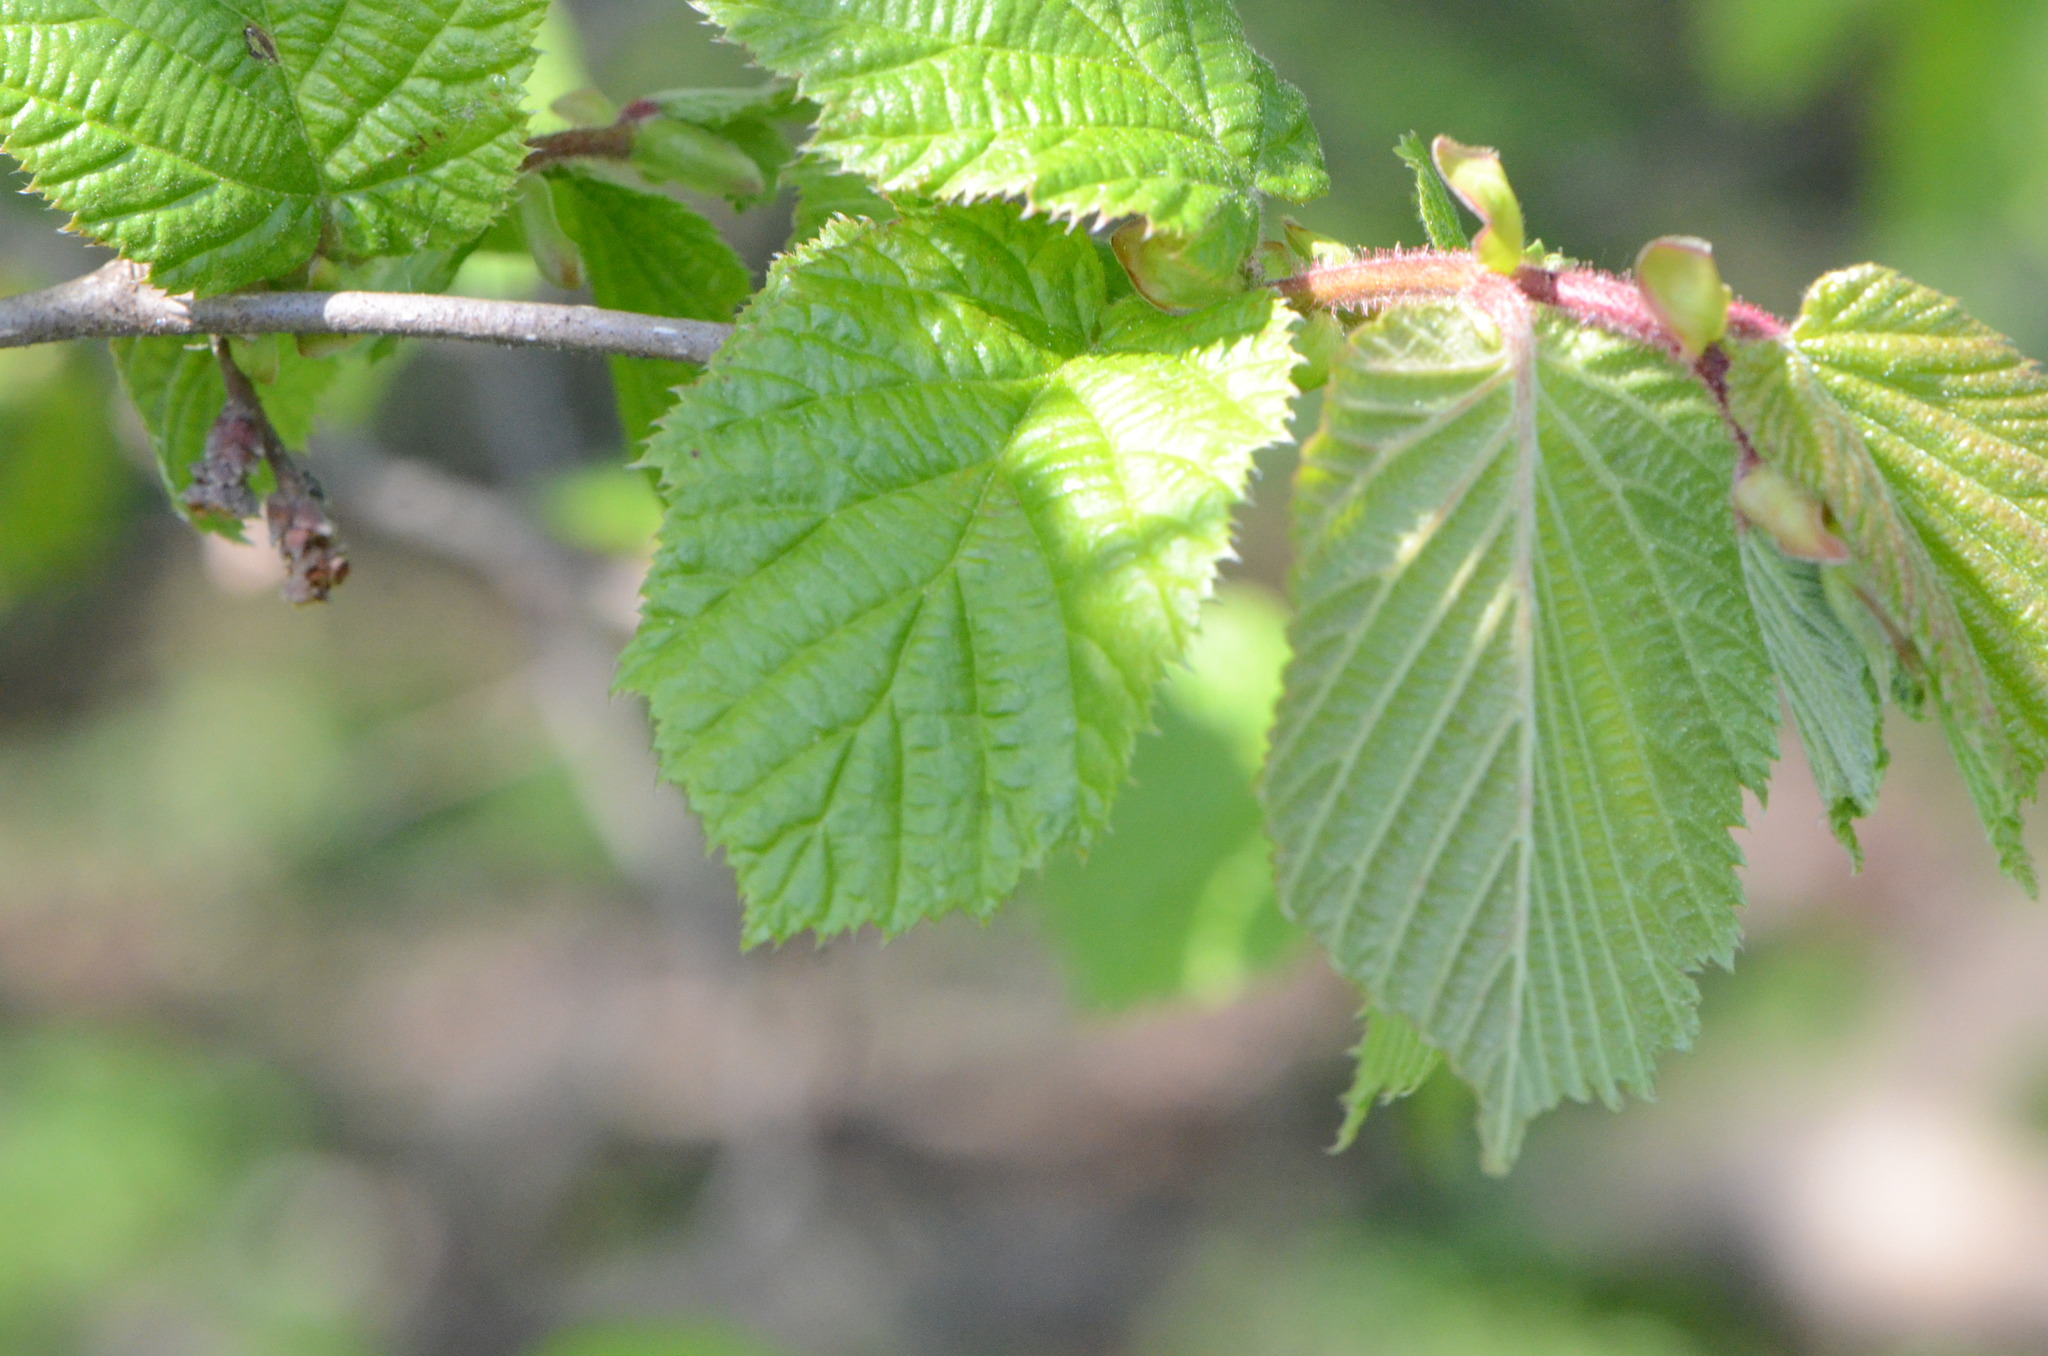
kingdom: Plantae
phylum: Tracheophyta
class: Magnoliopsida
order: Fagales
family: Betulaceae
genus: Corylus
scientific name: Corylus avellana
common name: European hazel
